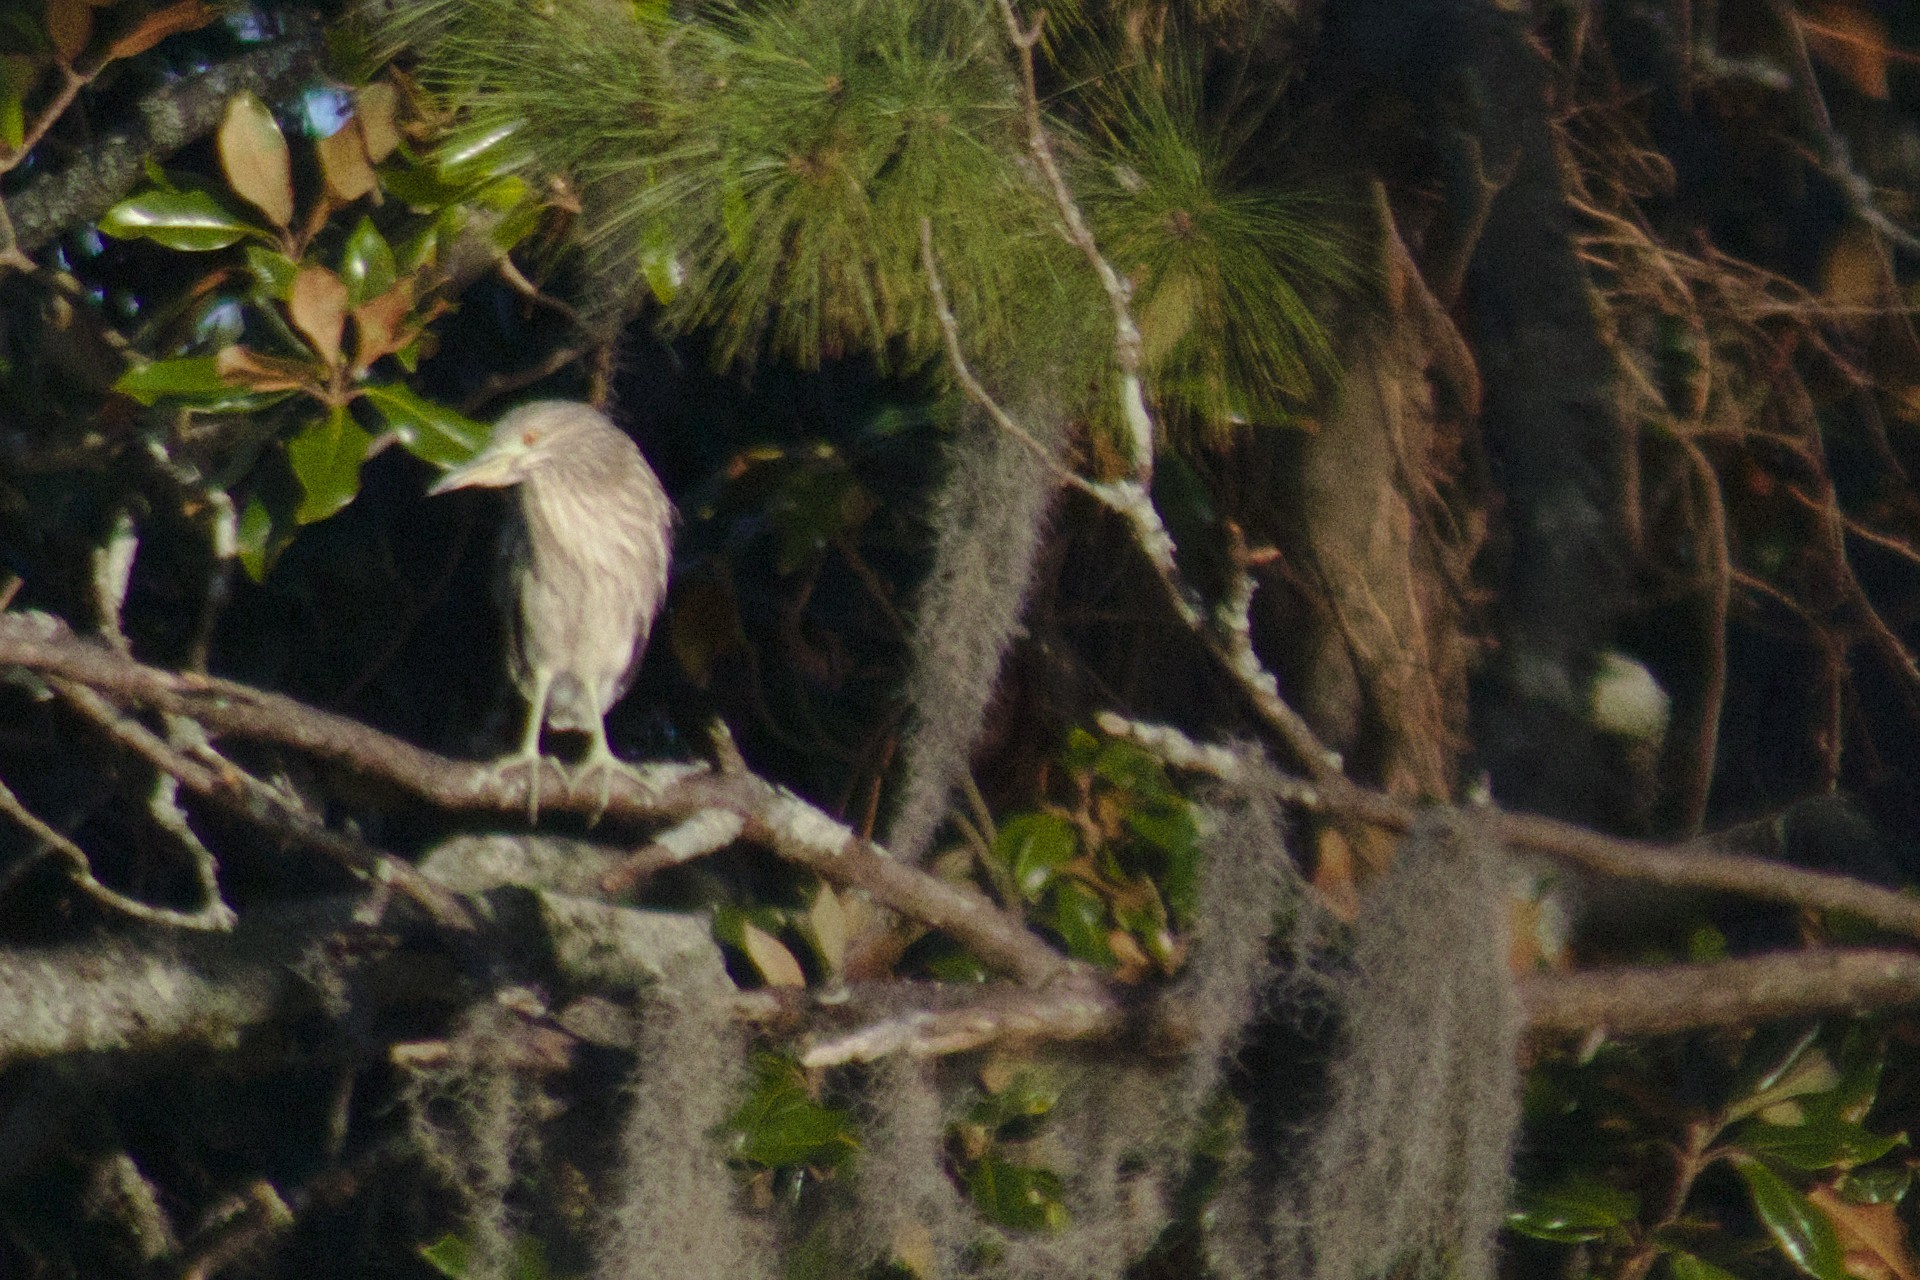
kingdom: Animalia
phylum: Chordata
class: Aves
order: Pelecaniformes
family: Ardeidae
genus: Nycticorax
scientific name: Nycticorax nycticorax
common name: Black-crowned night heron
